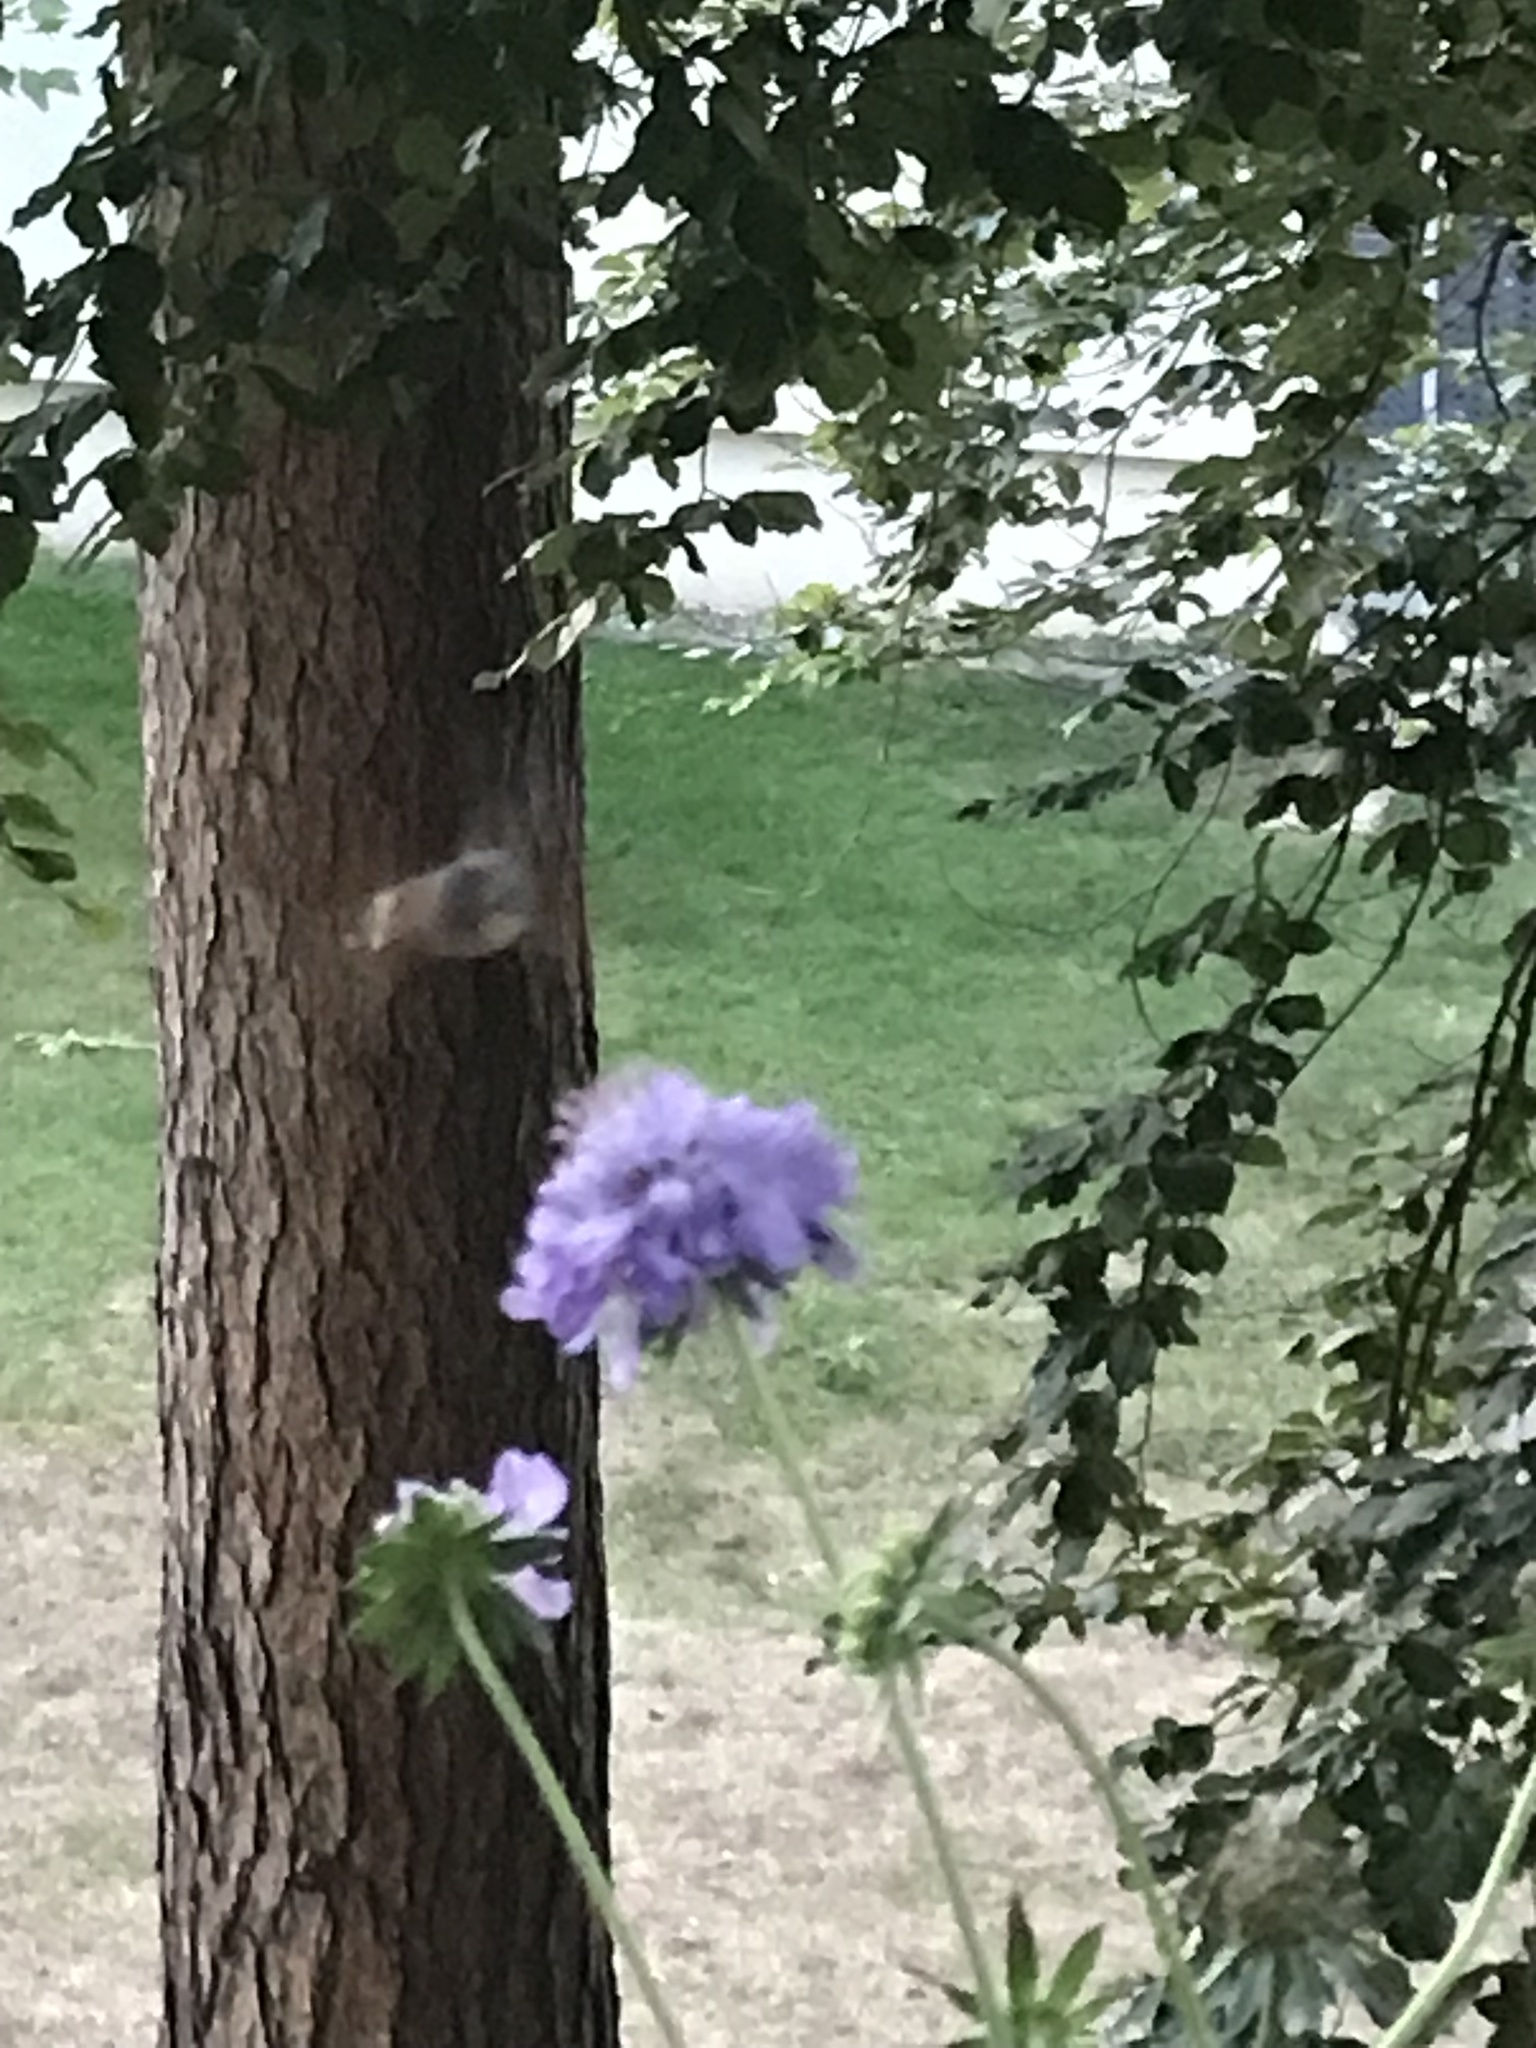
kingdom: Animalia
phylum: Arthropoda
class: Insecta
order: Lepidoptera
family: Sphingidae
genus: Macroglossum
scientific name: Macroglossum stellatarum
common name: Humming-bird hawk-moth
